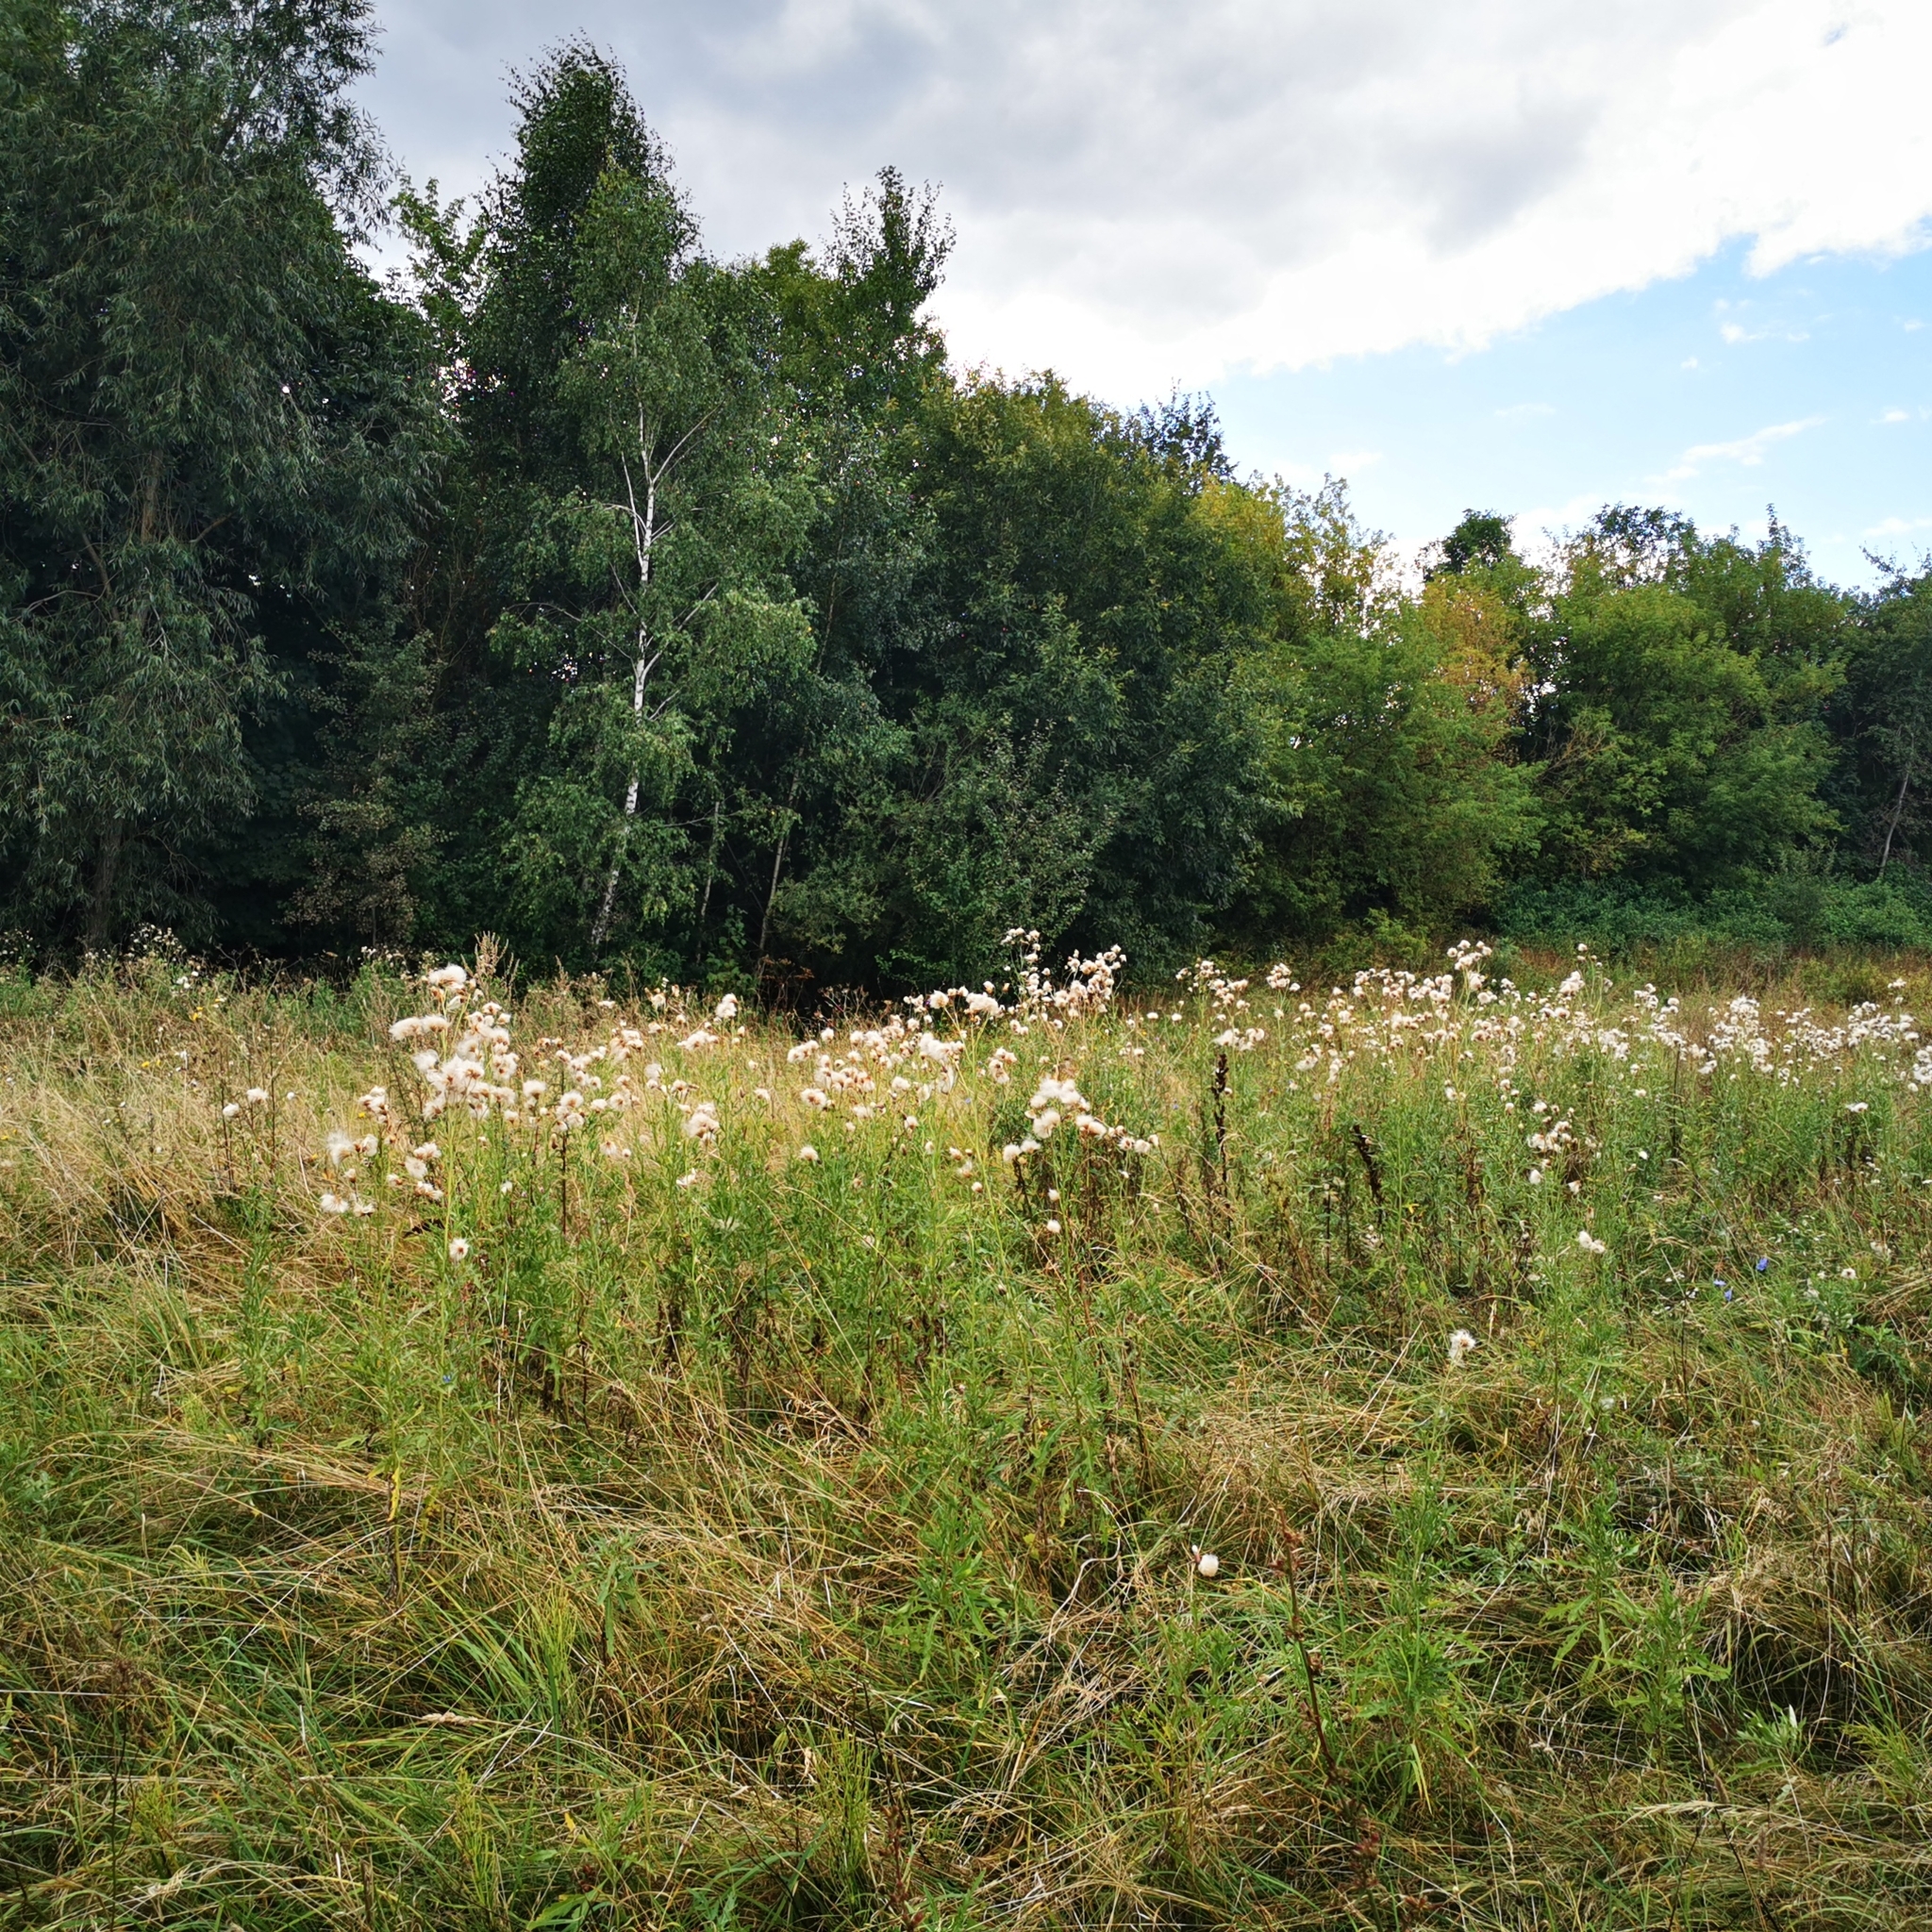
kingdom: Plantae
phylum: Tracheophyta
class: Magnoliopsida
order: Asterales
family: Asteraceae
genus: Cirsium
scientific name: Cirsium arvense
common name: Creeping thistle
